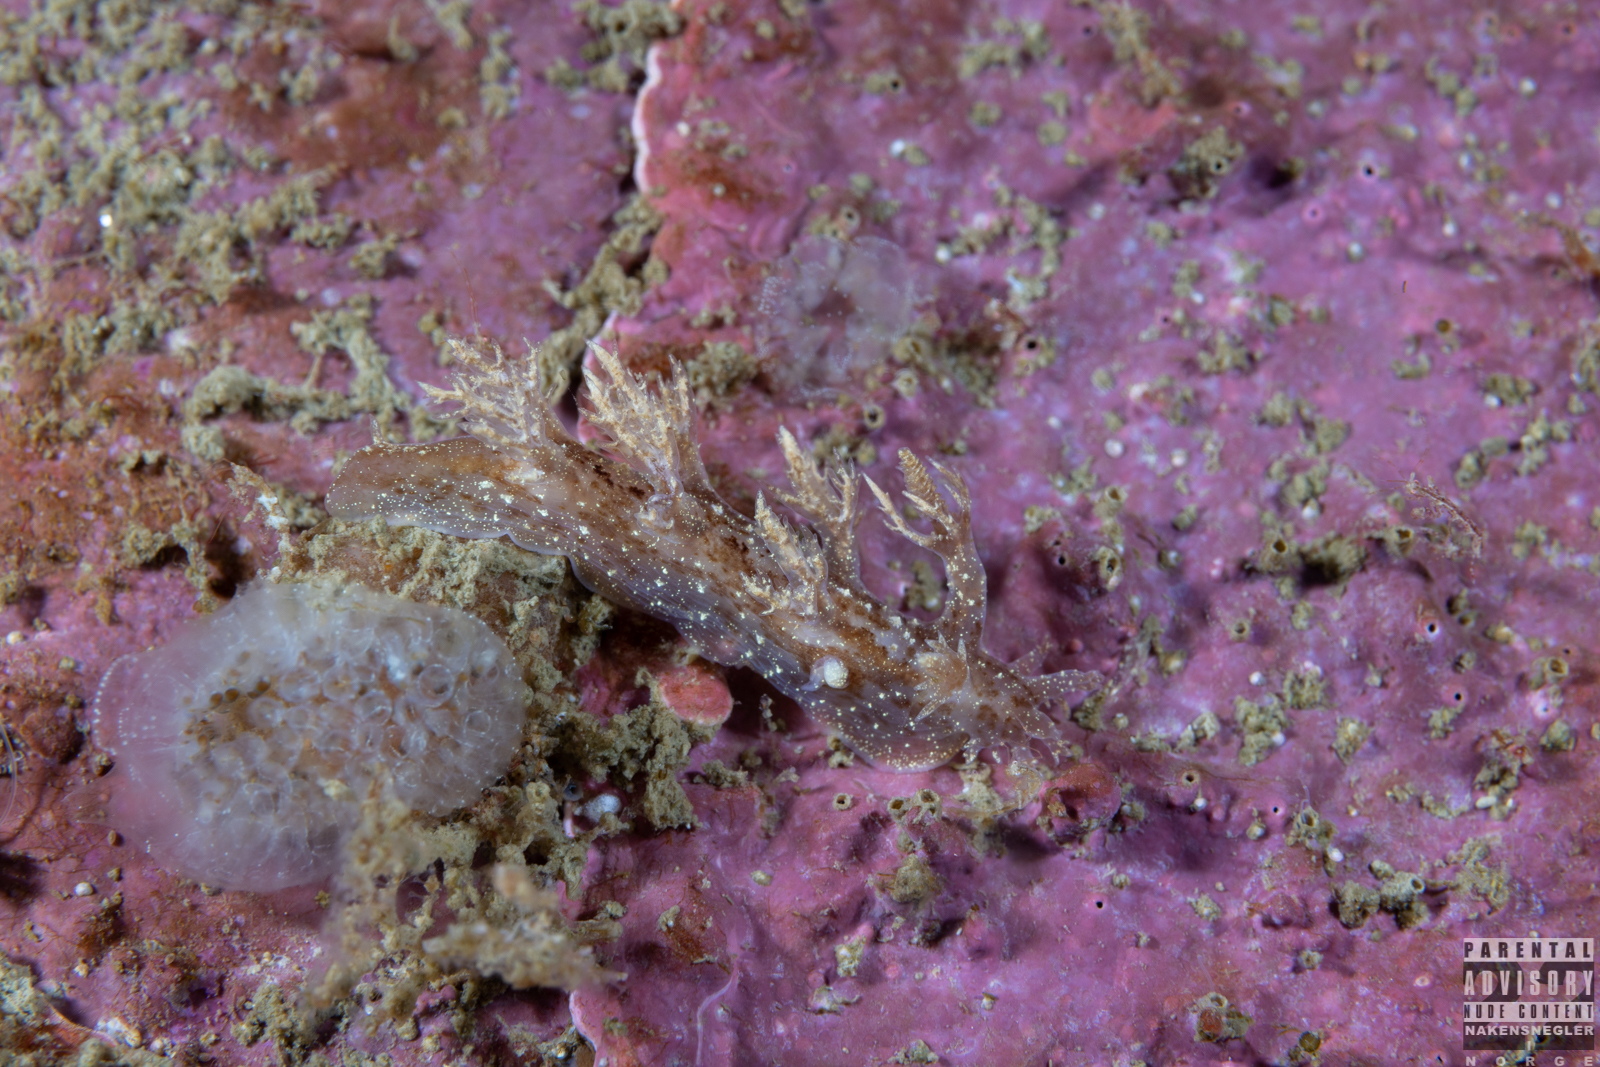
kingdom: Animalia
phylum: Mollusca
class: Gastropoda
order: Nudibranchia
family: Dendronotidae
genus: Dendronotus
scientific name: Dendronotus frondosus
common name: Bushy-backed nudibranch
